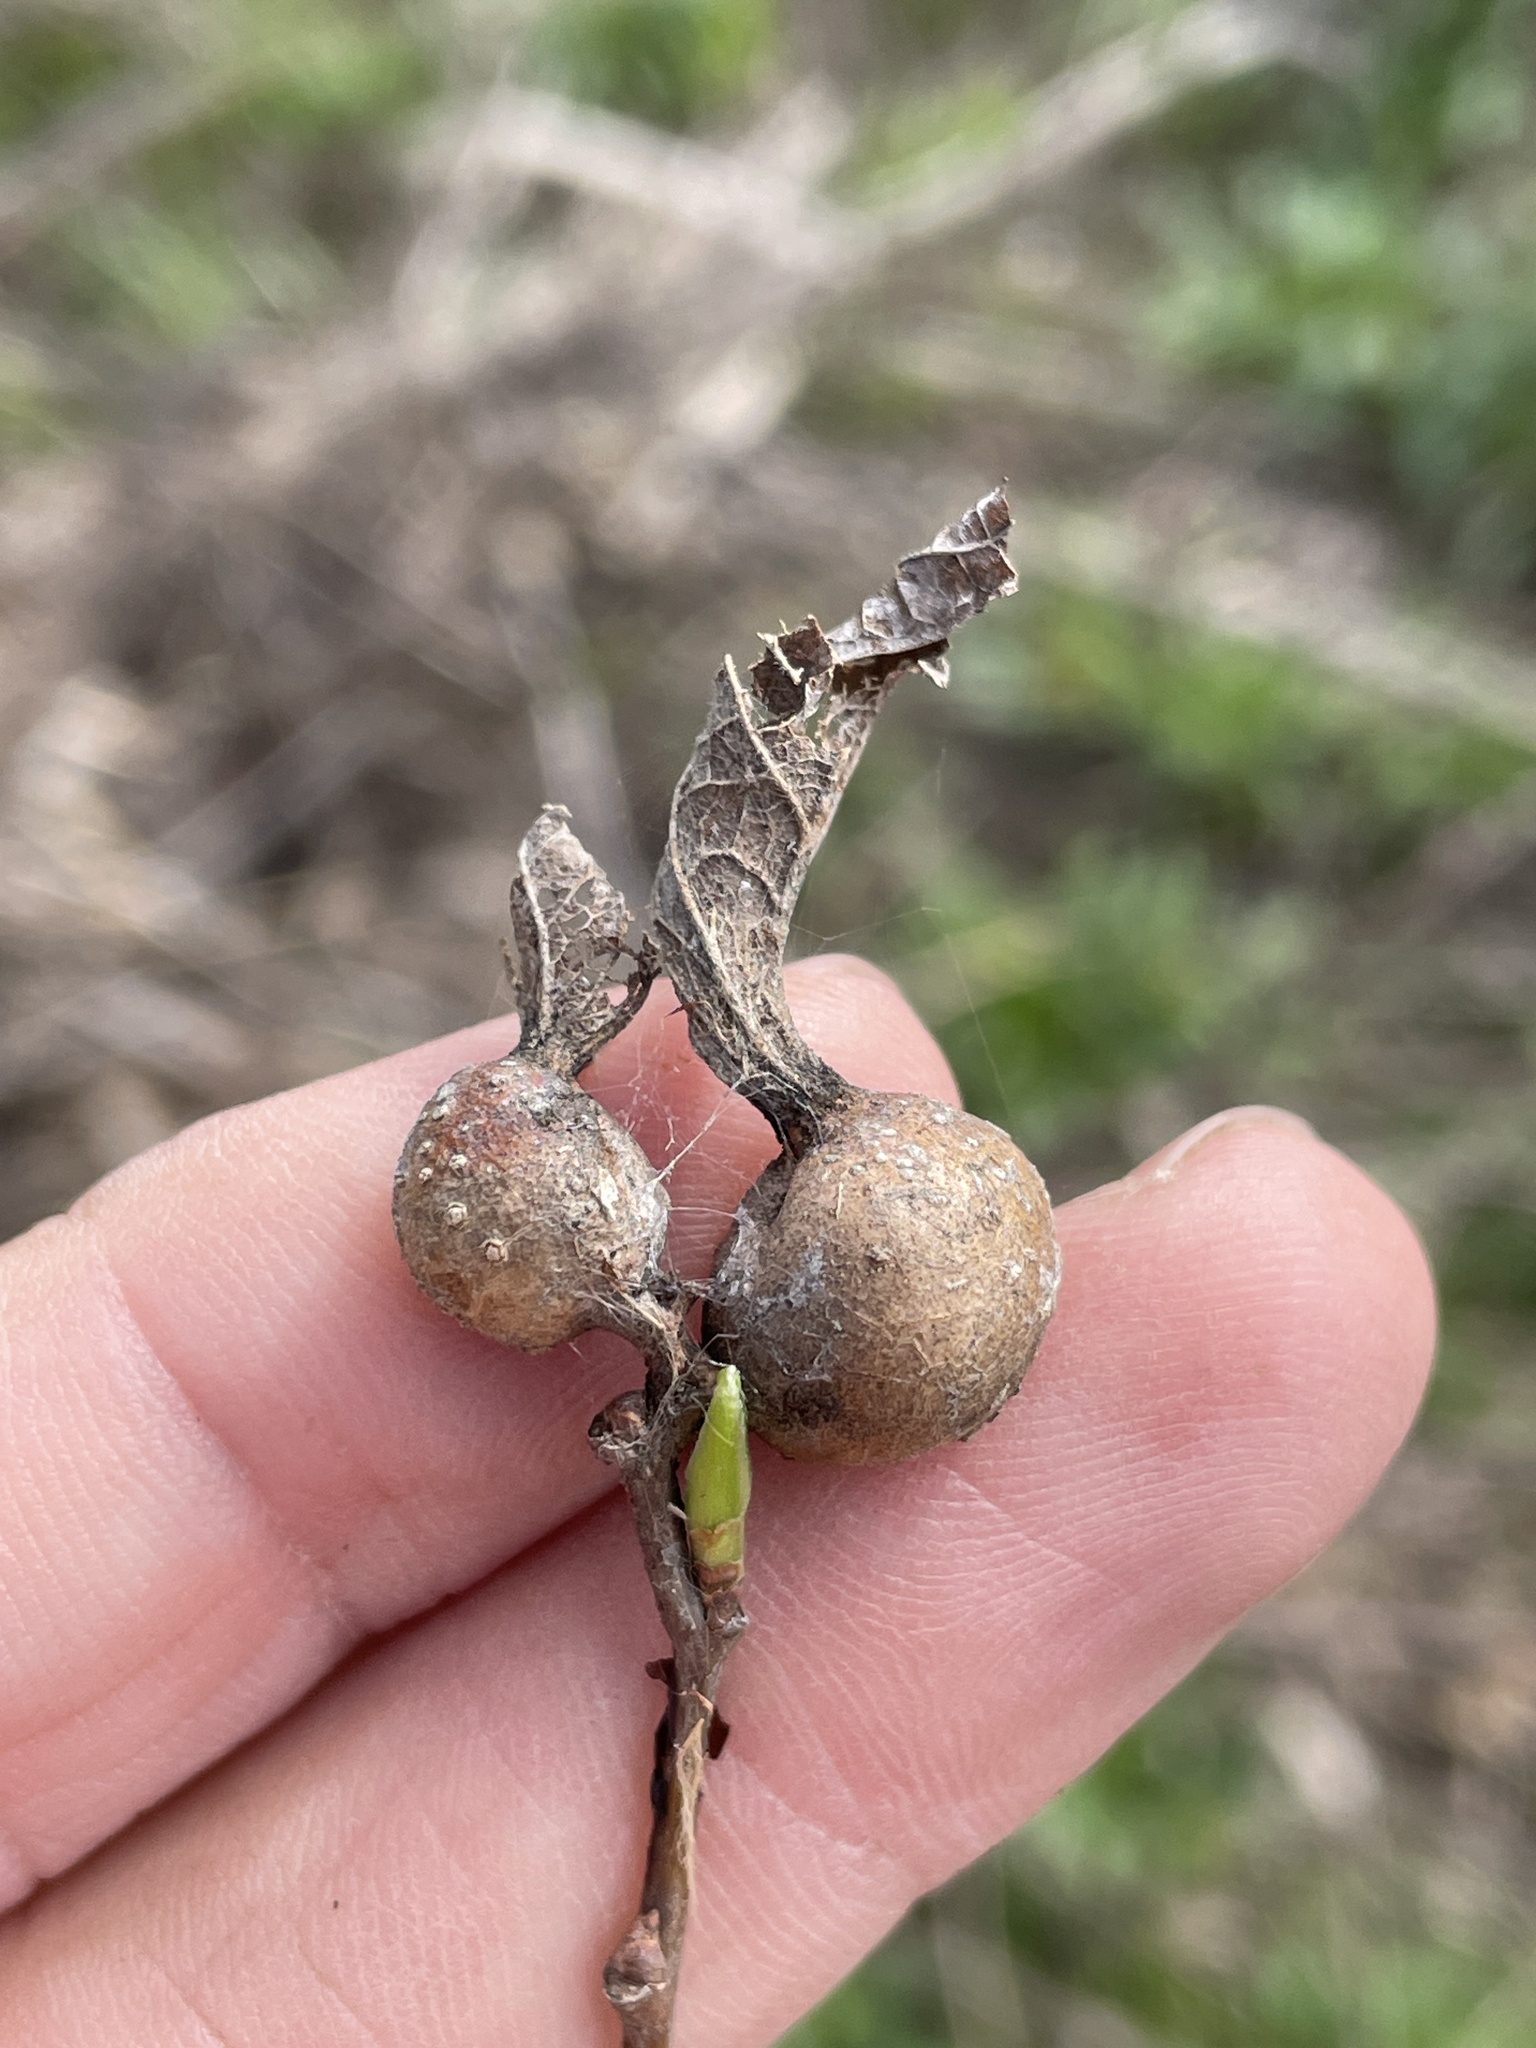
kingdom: Animalia
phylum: Arthropoda
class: Insecta
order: Hemiptera
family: Aphalaridae
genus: Pachypsylla
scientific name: Pachypsylla venusta
